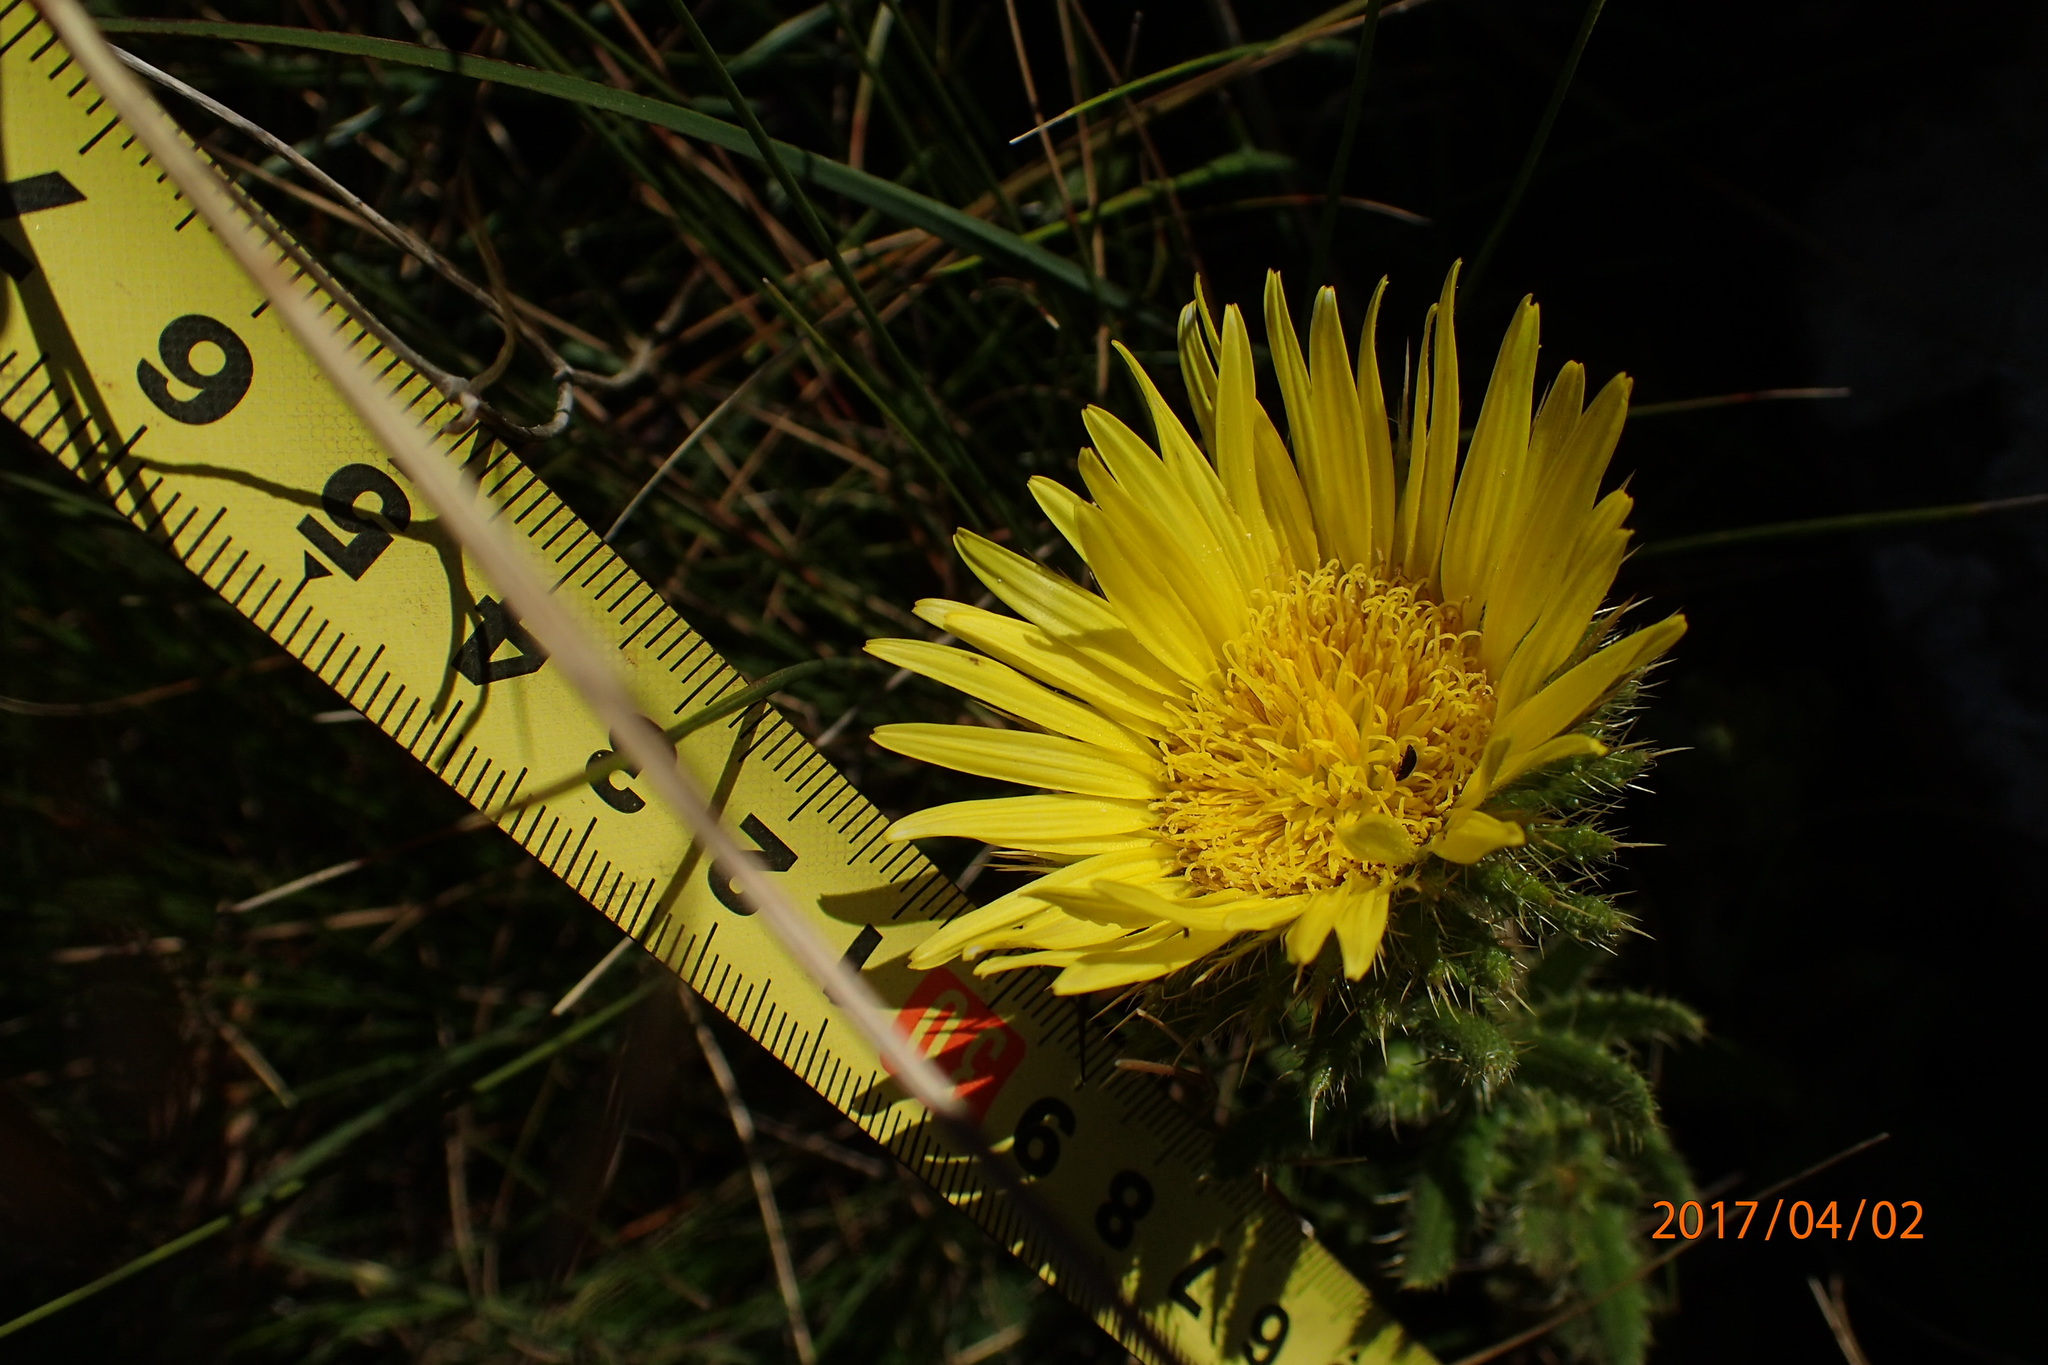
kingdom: Plantae
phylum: Tracheophyta
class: Magnoliopsida
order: Asterales
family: Asteraceae
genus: Berkheya
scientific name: Berkheya echinacea
